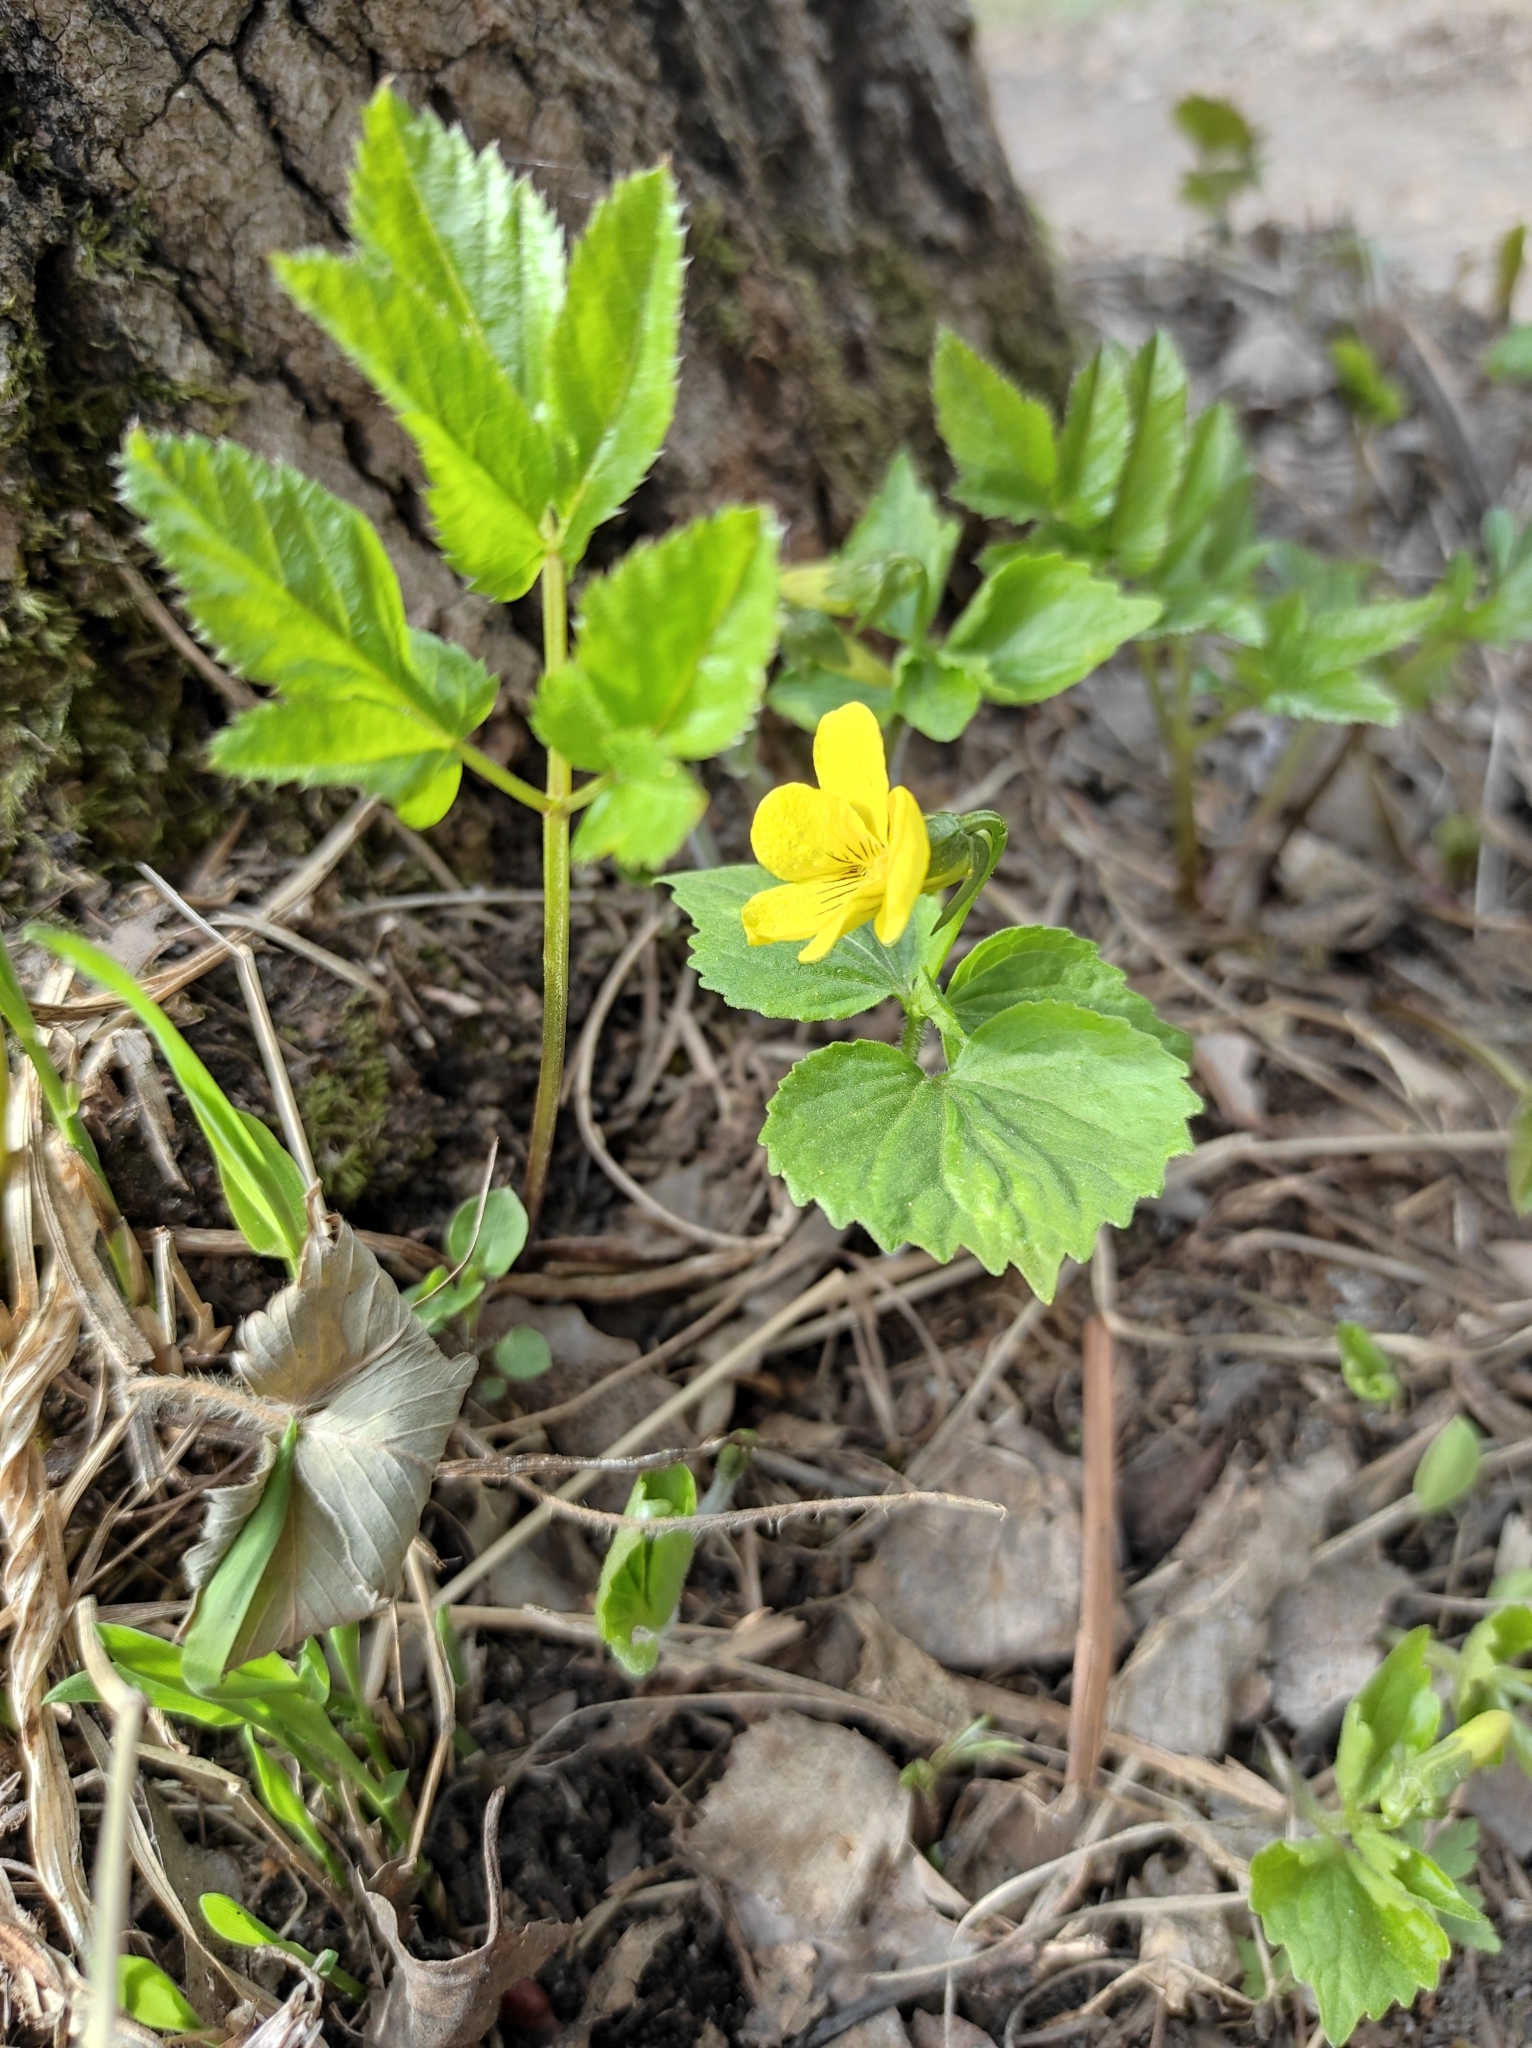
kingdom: Plantae
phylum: Tracheophyta
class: Magnoliopsida
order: Apiales
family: Apiaceae
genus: Aegopodium
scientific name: Aegopodium podagraria
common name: Ground-elder
